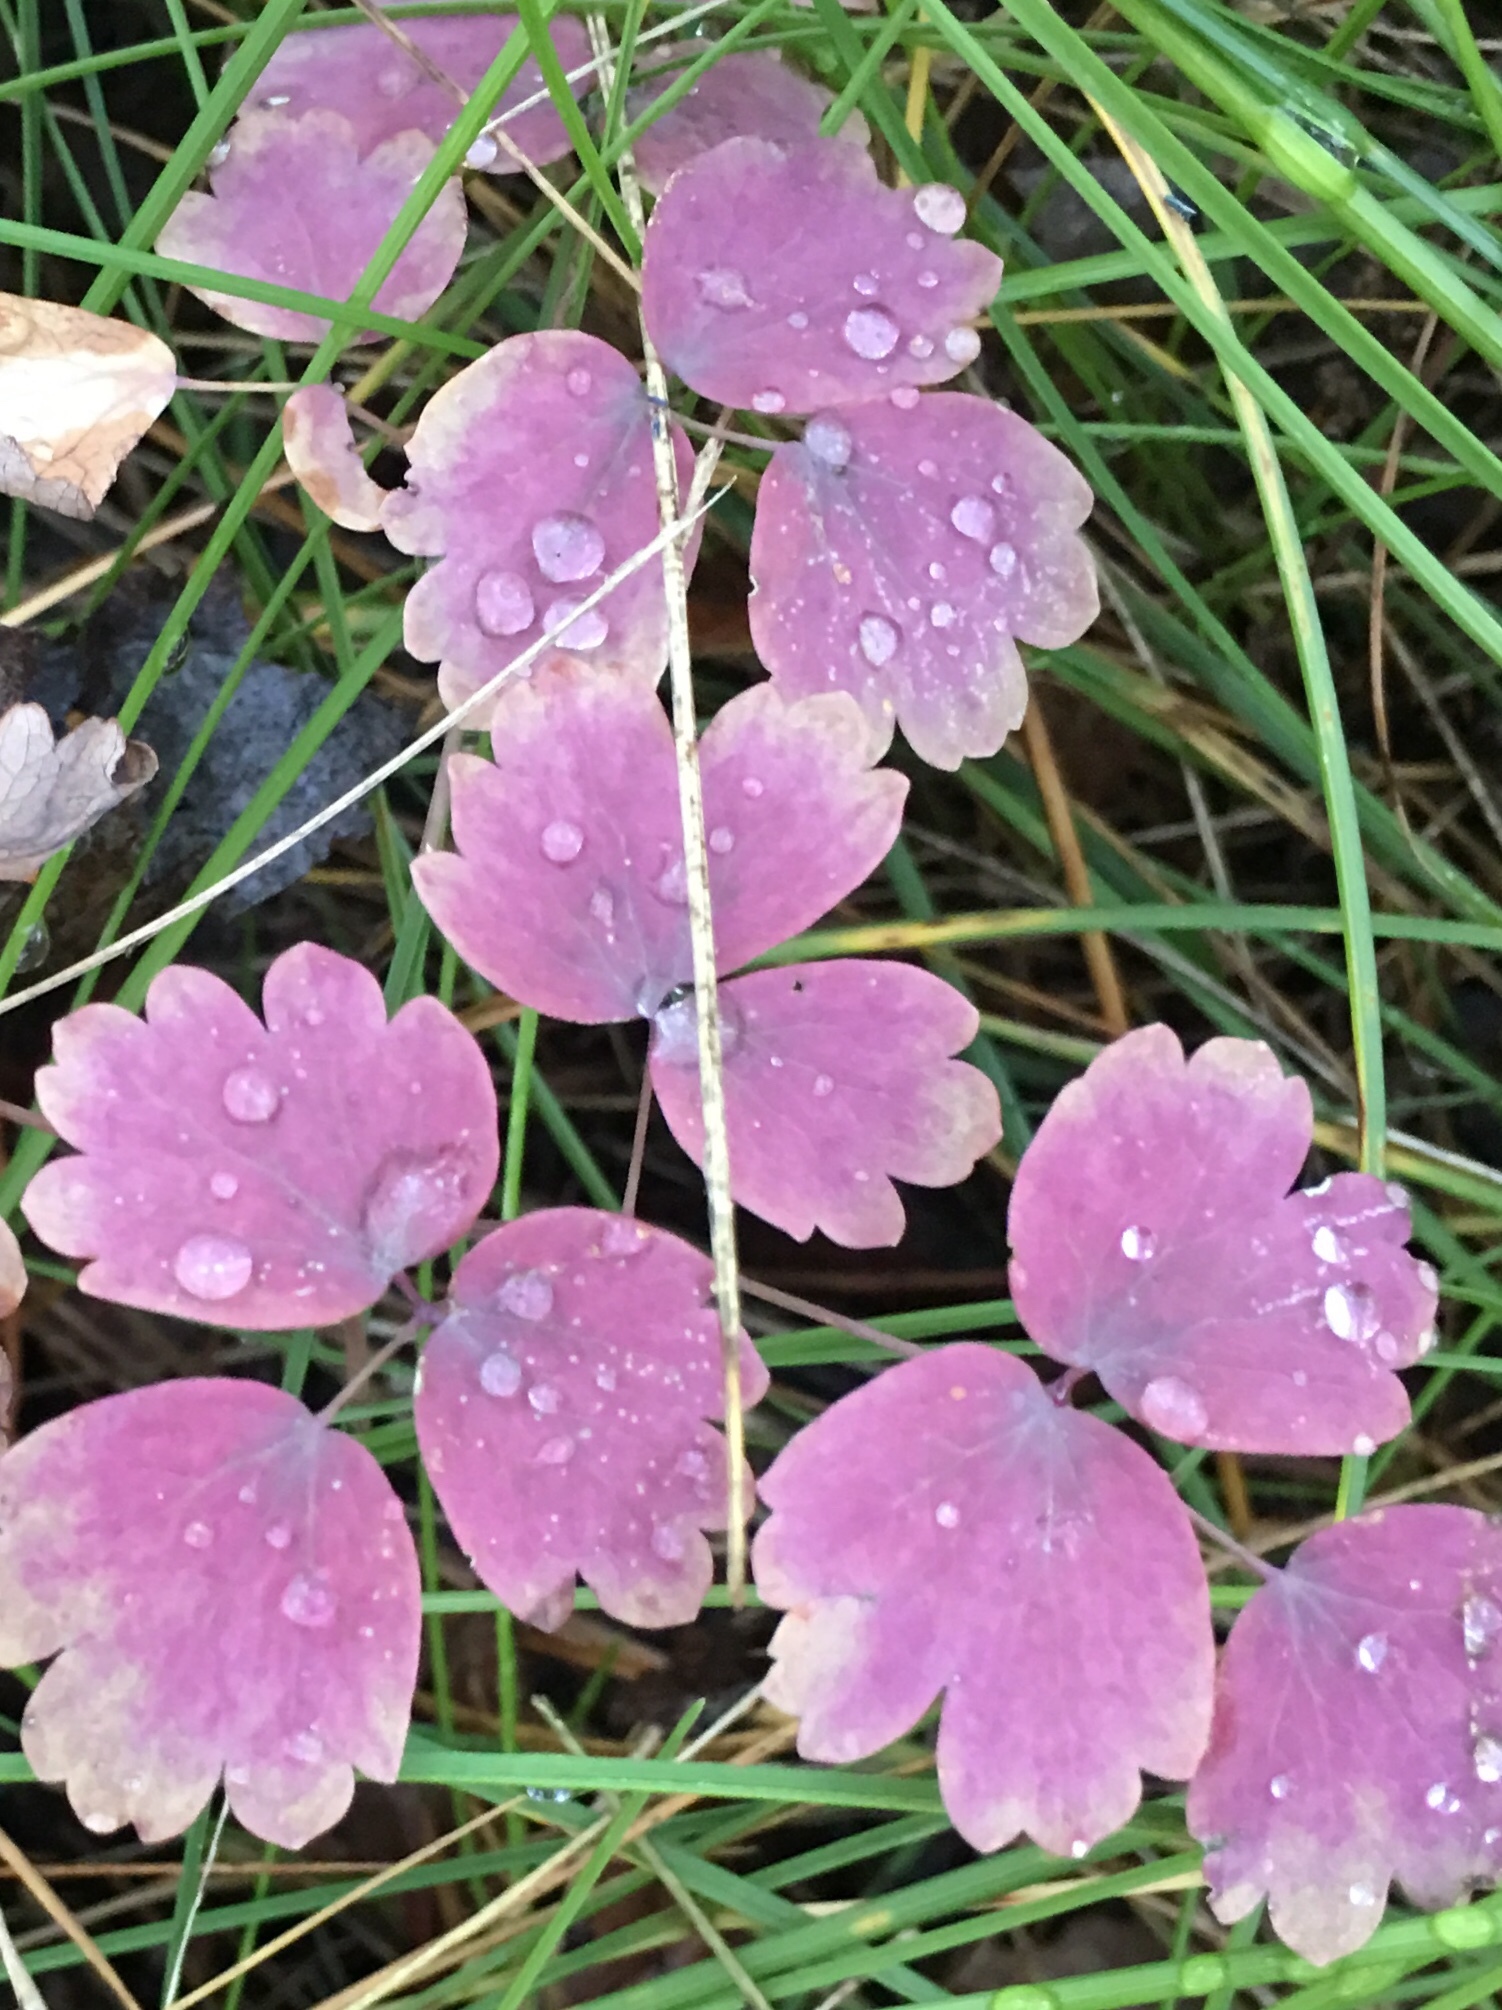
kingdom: Plantae
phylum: Tracheophyta
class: Magnoliopsida
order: Ranunculales
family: Ranunculaceae
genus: Thalictrum
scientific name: Thalictrum dioicum
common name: Early meadow-rue
